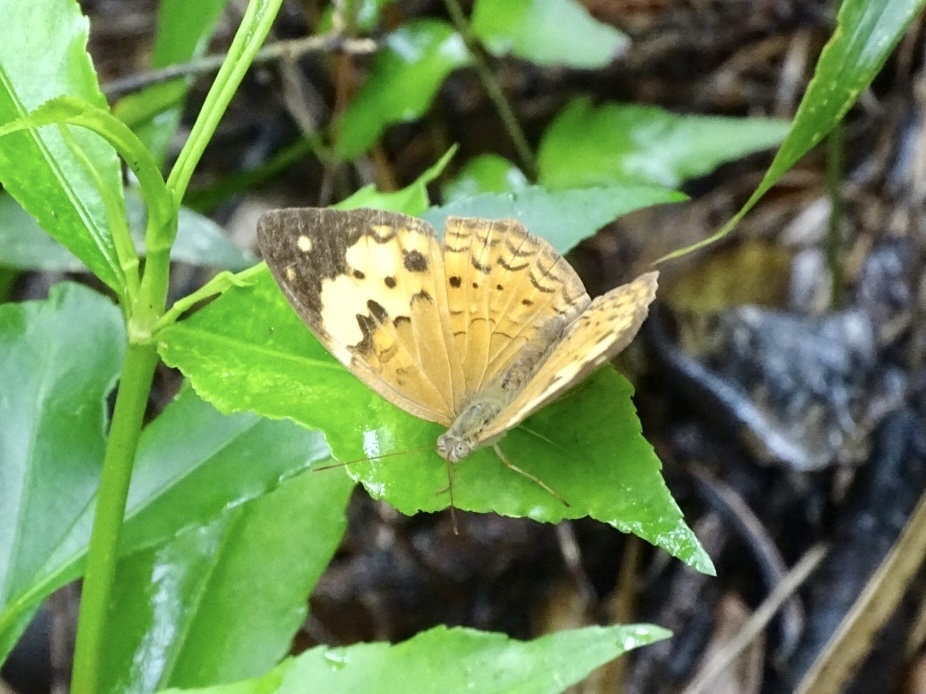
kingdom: Animalia
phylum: Arthropoda
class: Insecta
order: Lepidoptera
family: Nymphalidae
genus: Cupha
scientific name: Cupha erymanthis
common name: Rustic
